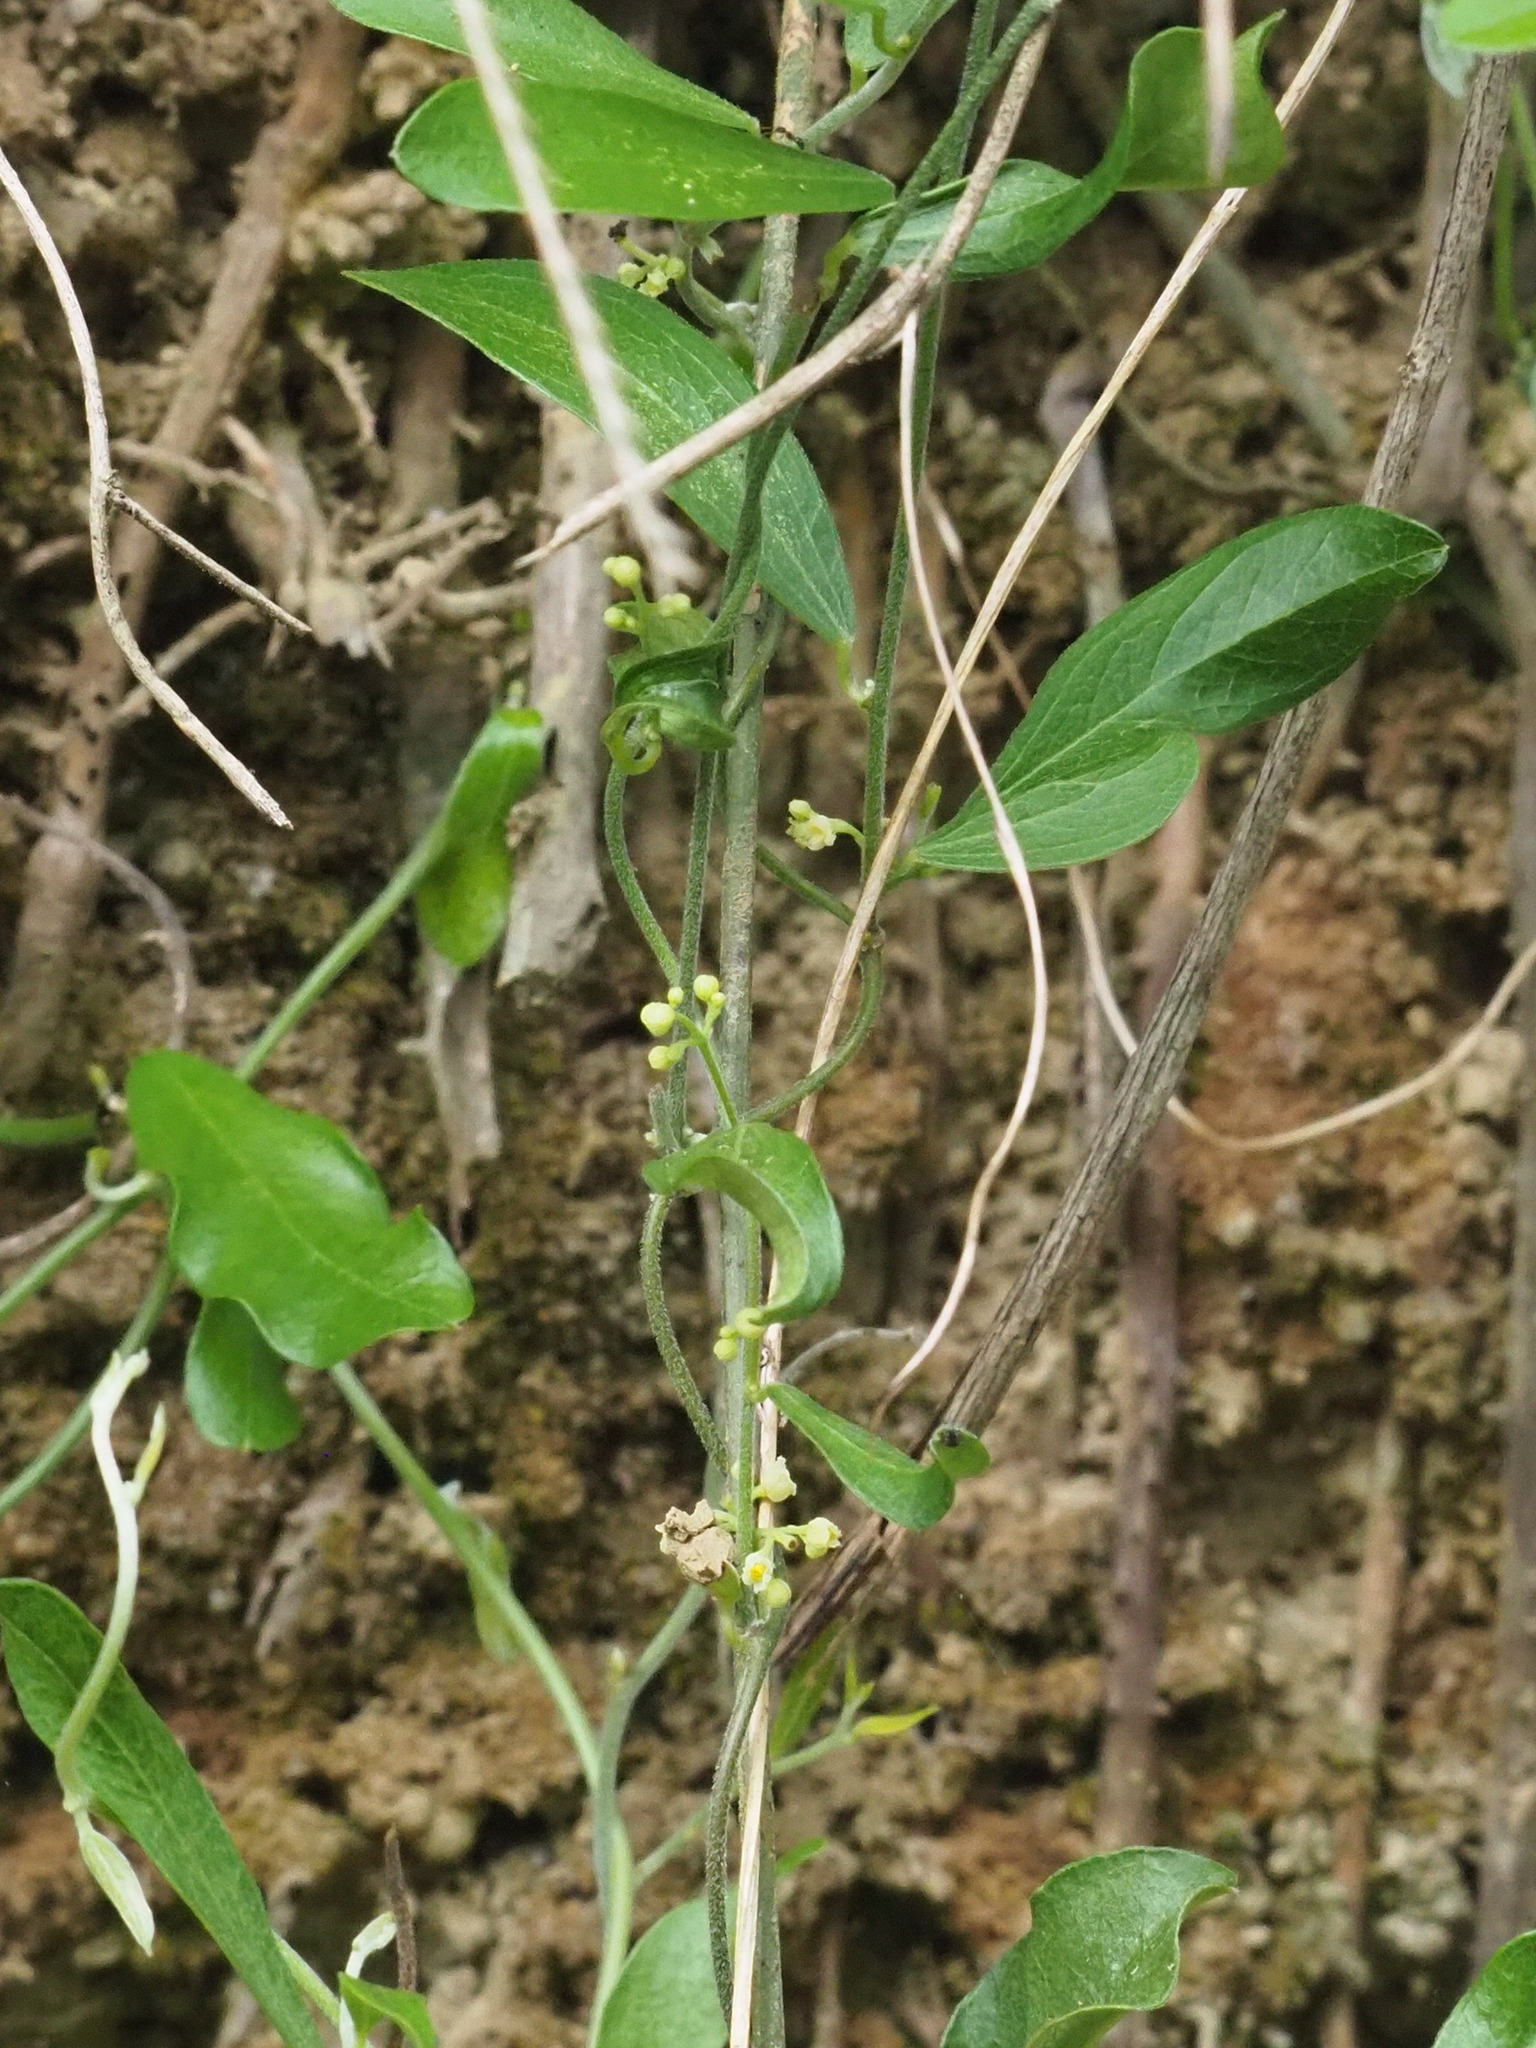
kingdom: Plantae
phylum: Tracheophyta
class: Magnoliopsida
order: Ranunculales
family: Menispermaceae
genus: Cocculus
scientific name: Cocculus orbiculatus
